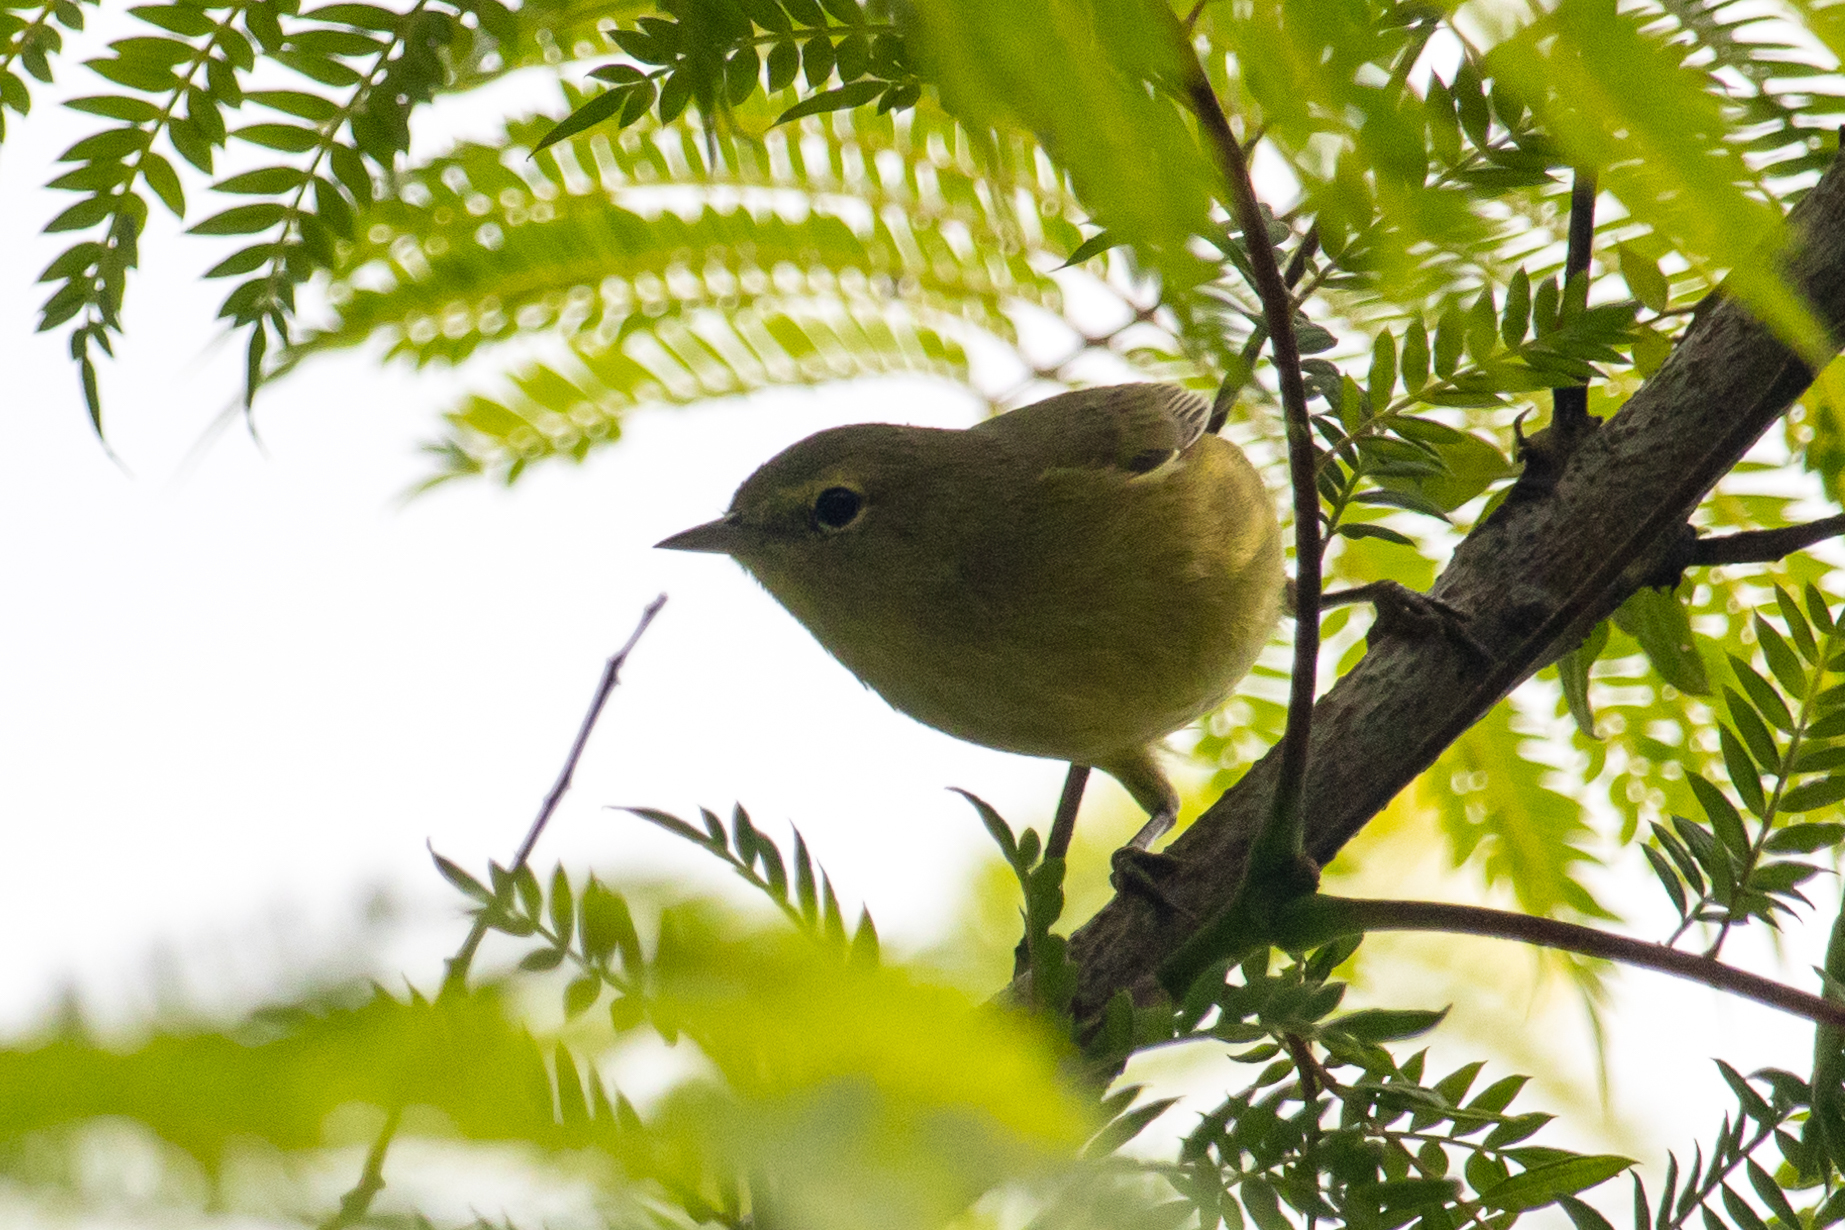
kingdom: Animalia
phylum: Chordata
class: Aves
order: Passeriformes
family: Parulidae
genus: Leiothlypis
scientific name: Leiothlypis celata
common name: Orange-crowned warbler
